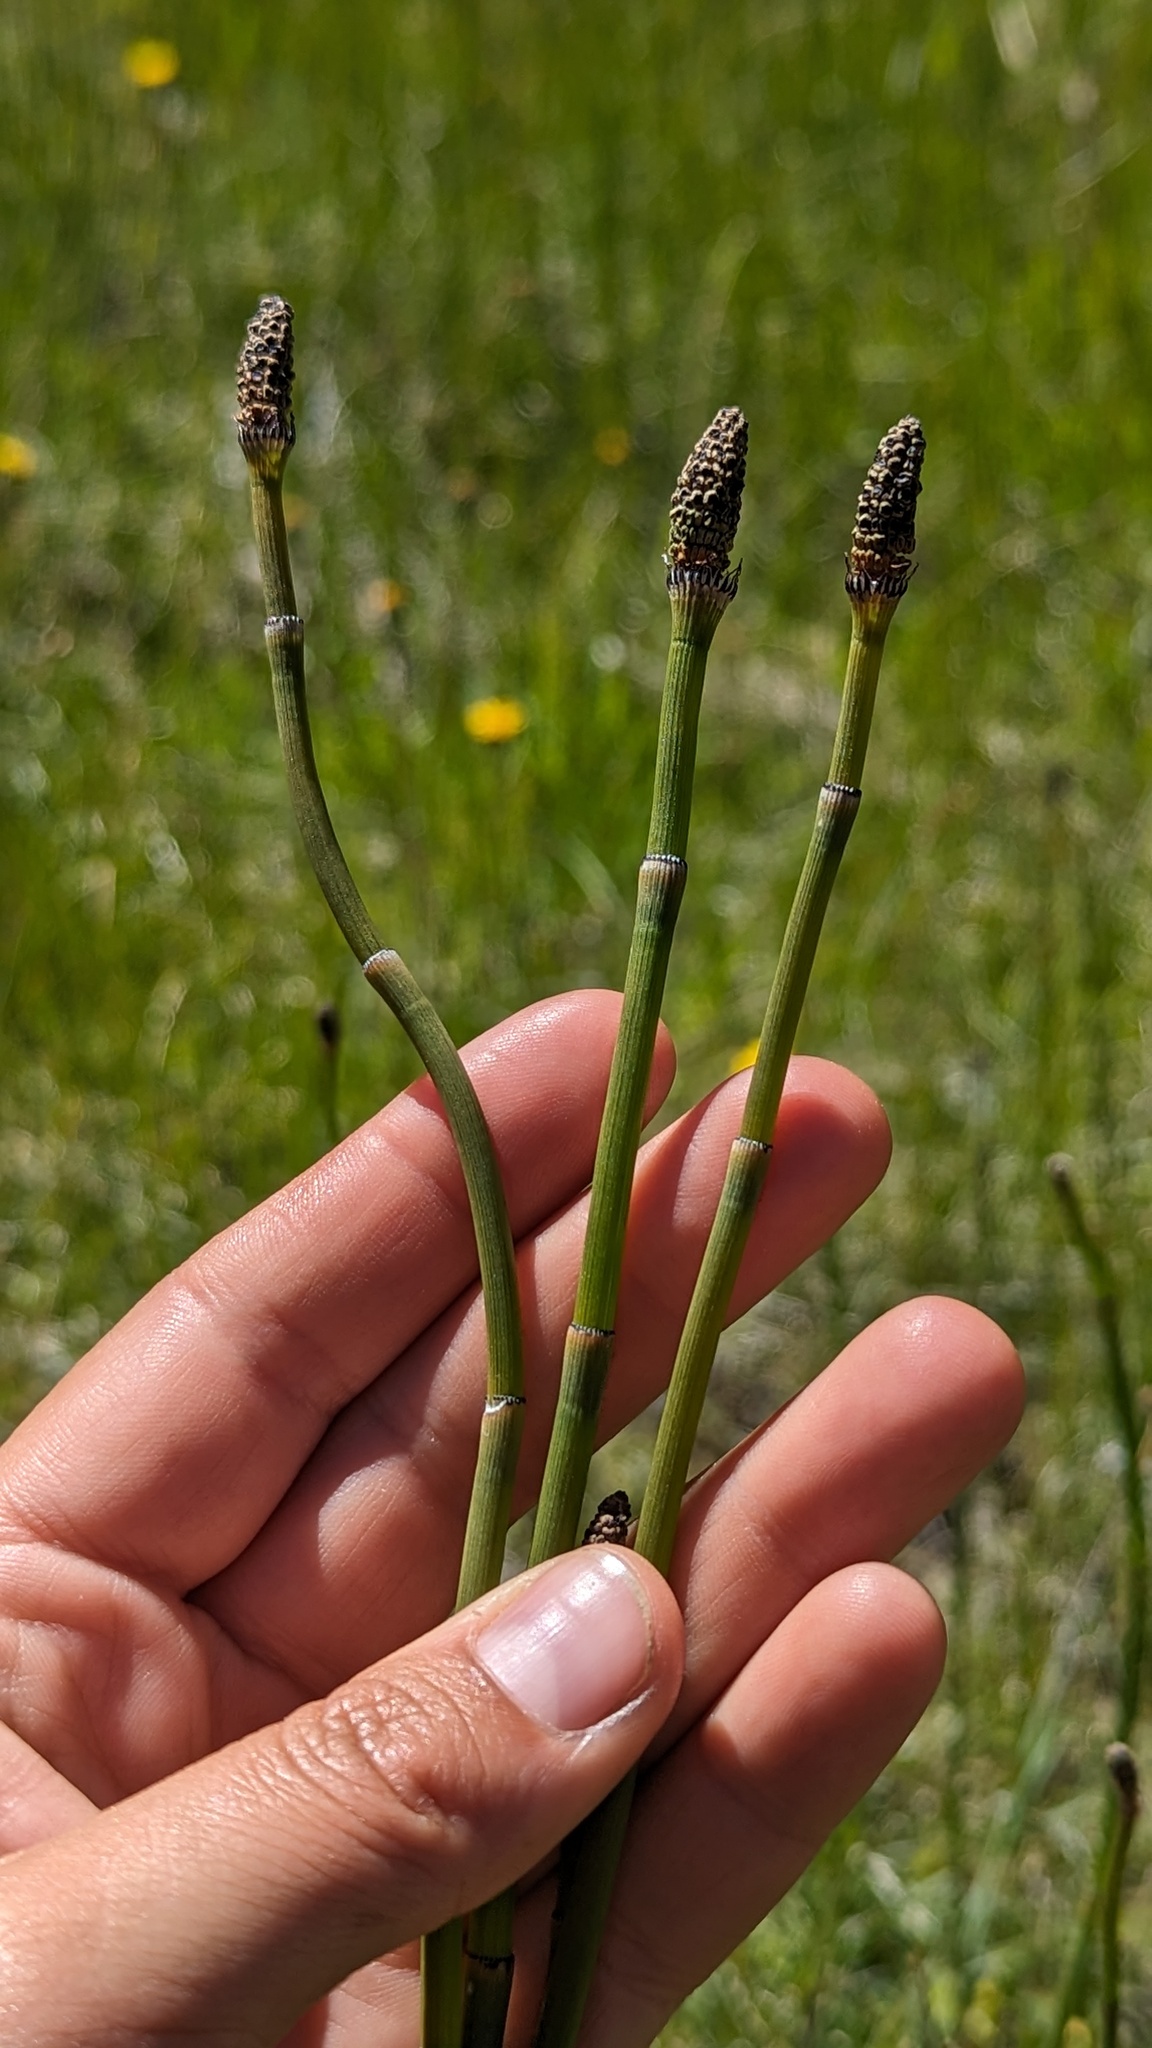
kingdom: Plantae
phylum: Tracheophyta
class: Polypodiopsida
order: Equisetales
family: Equisetaceae
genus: Equisetum
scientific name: Equisetum laevigatum
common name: Smooth scouring-rush
